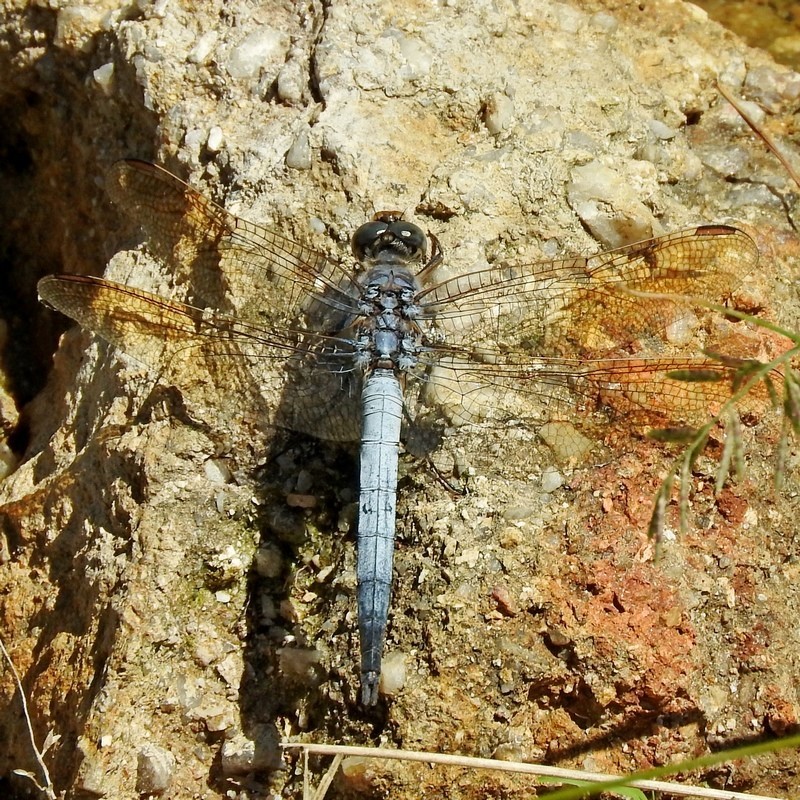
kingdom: Animalia
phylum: Arthropoda
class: Insecta
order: Odonata
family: Libellulidae
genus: Orthetrum
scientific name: Orthetrum caledonicum
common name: Blue skimmer
